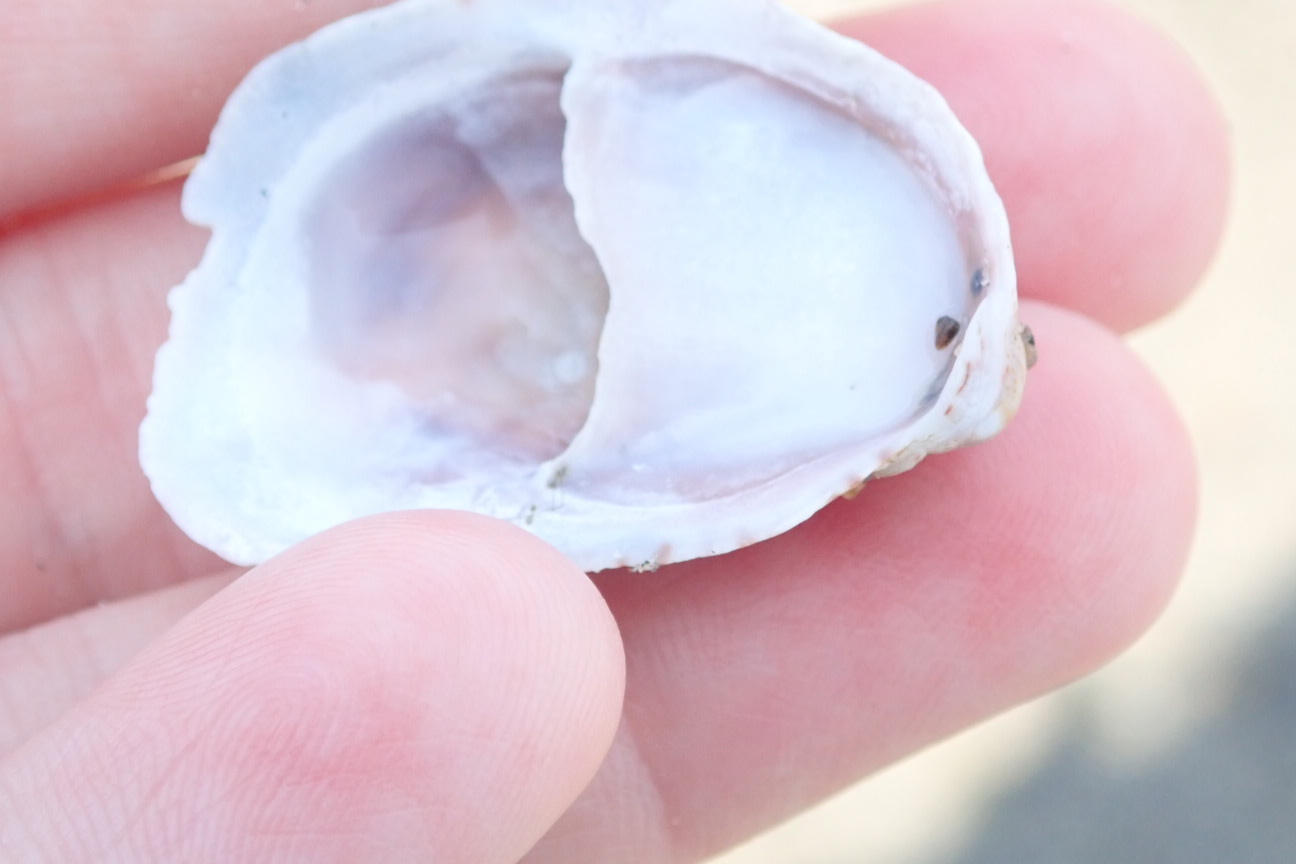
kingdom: Animalia
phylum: Mollusca
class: Gastropoda
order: Littorinimorpha
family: Calyptraeidae
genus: Crepidula
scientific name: Crepidula fornicata
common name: Slipper limpet
